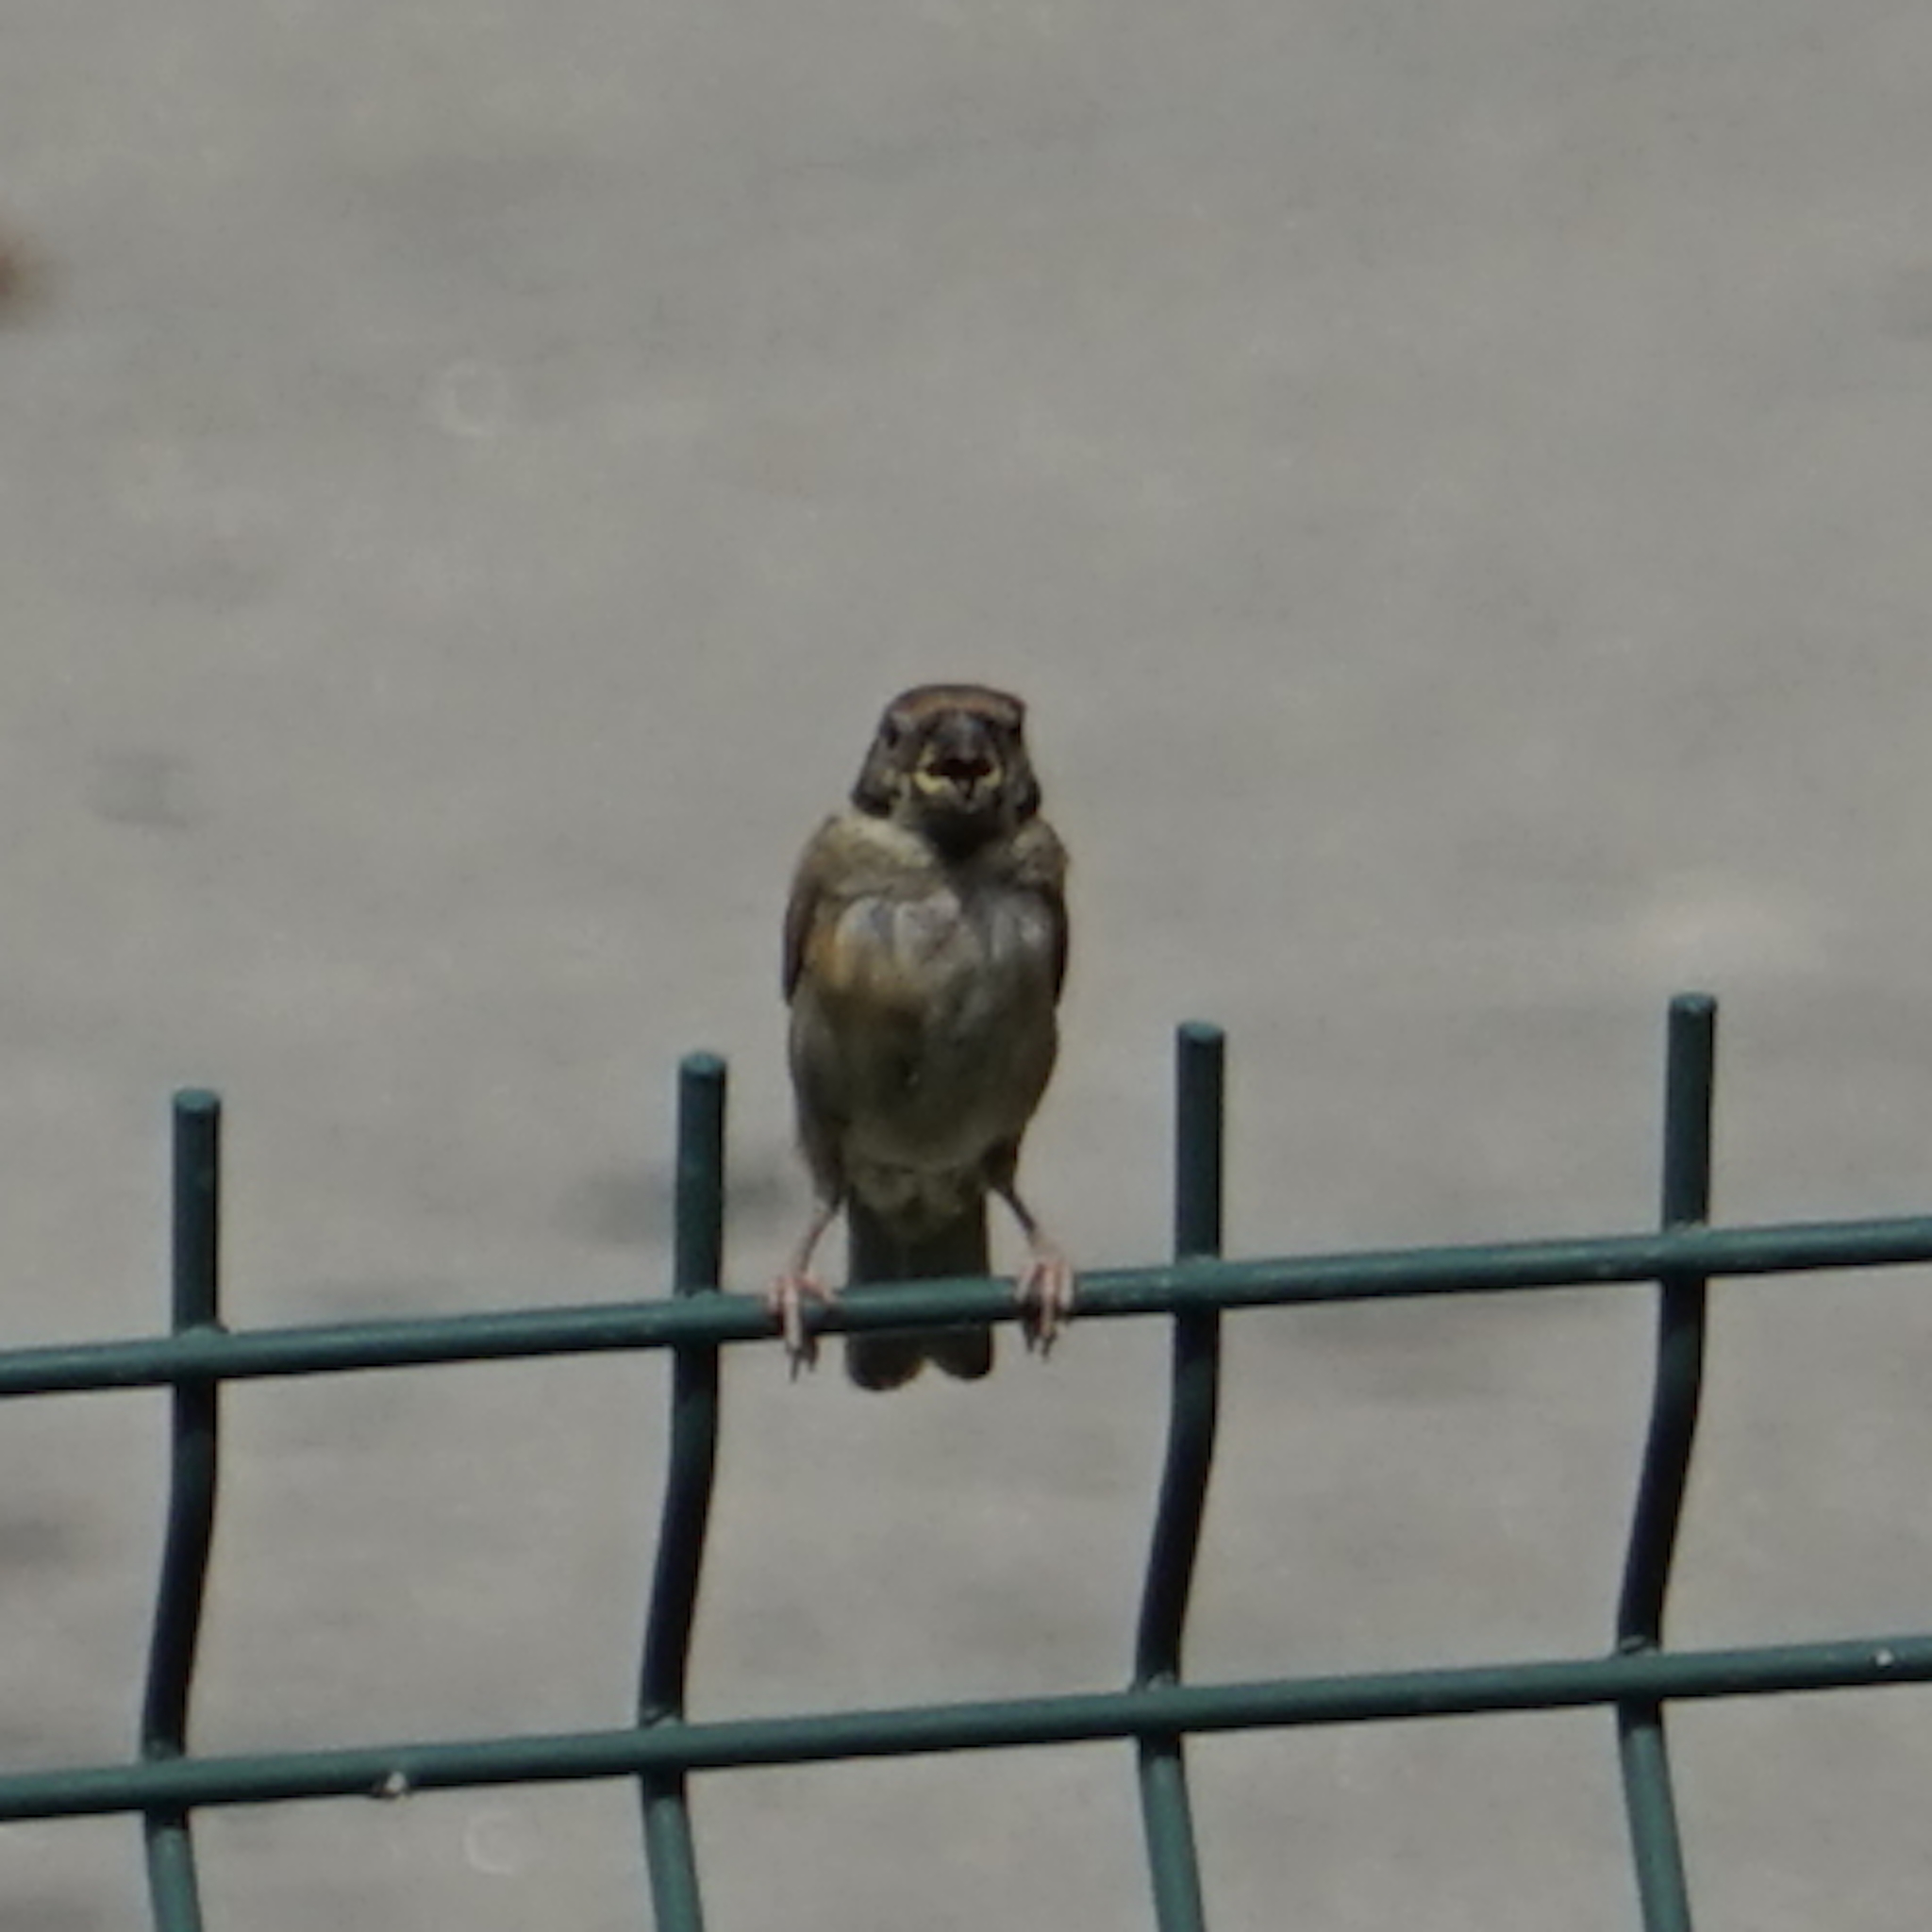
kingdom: Animalia
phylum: Chordata
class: Aves
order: Passeriformes
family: Passeridae
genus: Passer
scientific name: Passer montanus
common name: Eurasian tree sparrow
